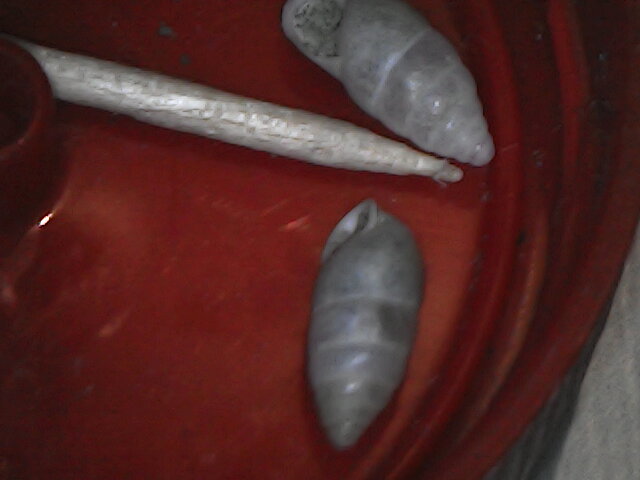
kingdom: Animalia
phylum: Mollusca
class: Gastropoda
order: Stylommatophora
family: Enidae
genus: Chondrula
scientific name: Chondrula tridens
